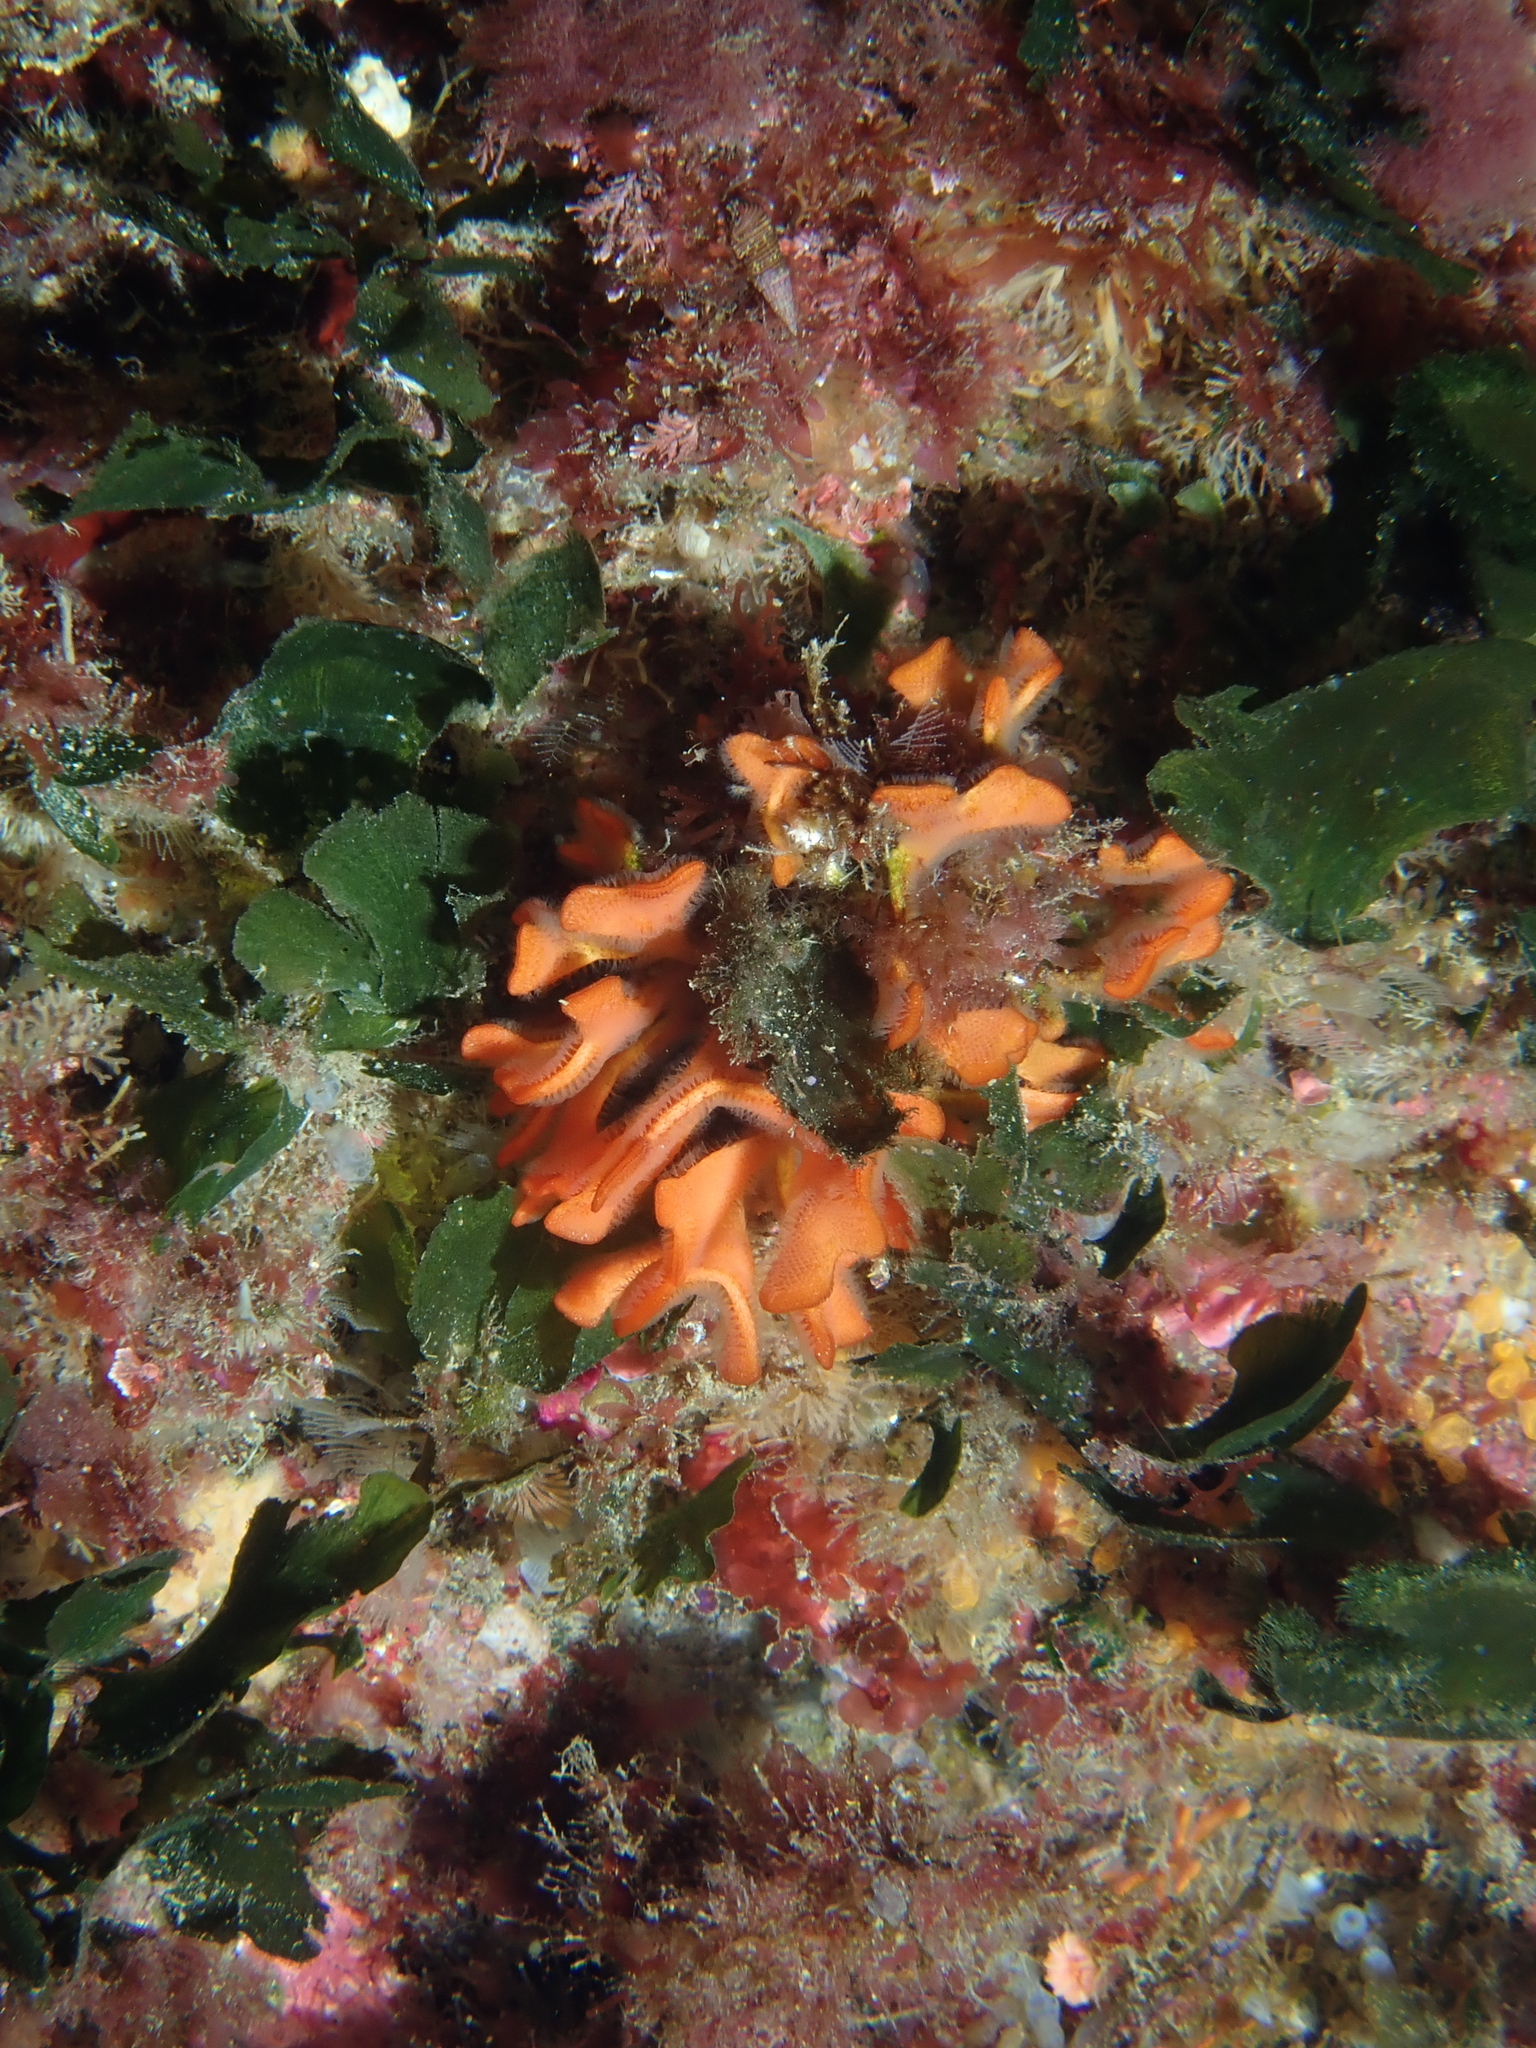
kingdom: Animalia
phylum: Bryozoa
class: Gymnolaemata
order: Cheilostomatida
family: Bitectiporidae
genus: Pentapora
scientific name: Pentapora fascialis
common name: Ross coral
